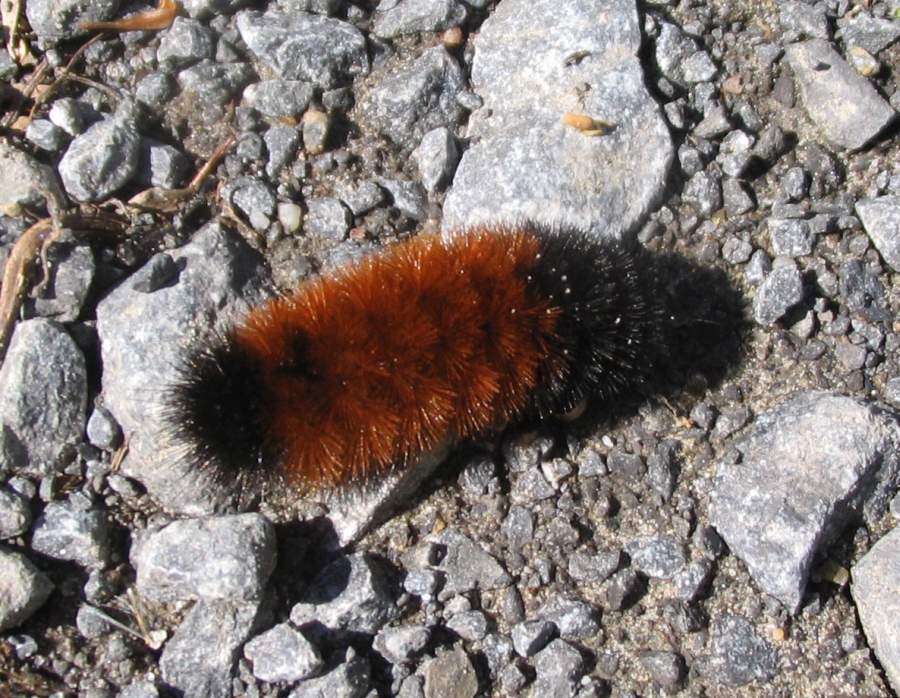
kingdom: Animalia
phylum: Arthropoda
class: Insecta
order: Lepidoptera
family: Erebidae
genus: Pyrrharctia
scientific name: Pyrrharctia isabella
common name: Isabella tiger moth
